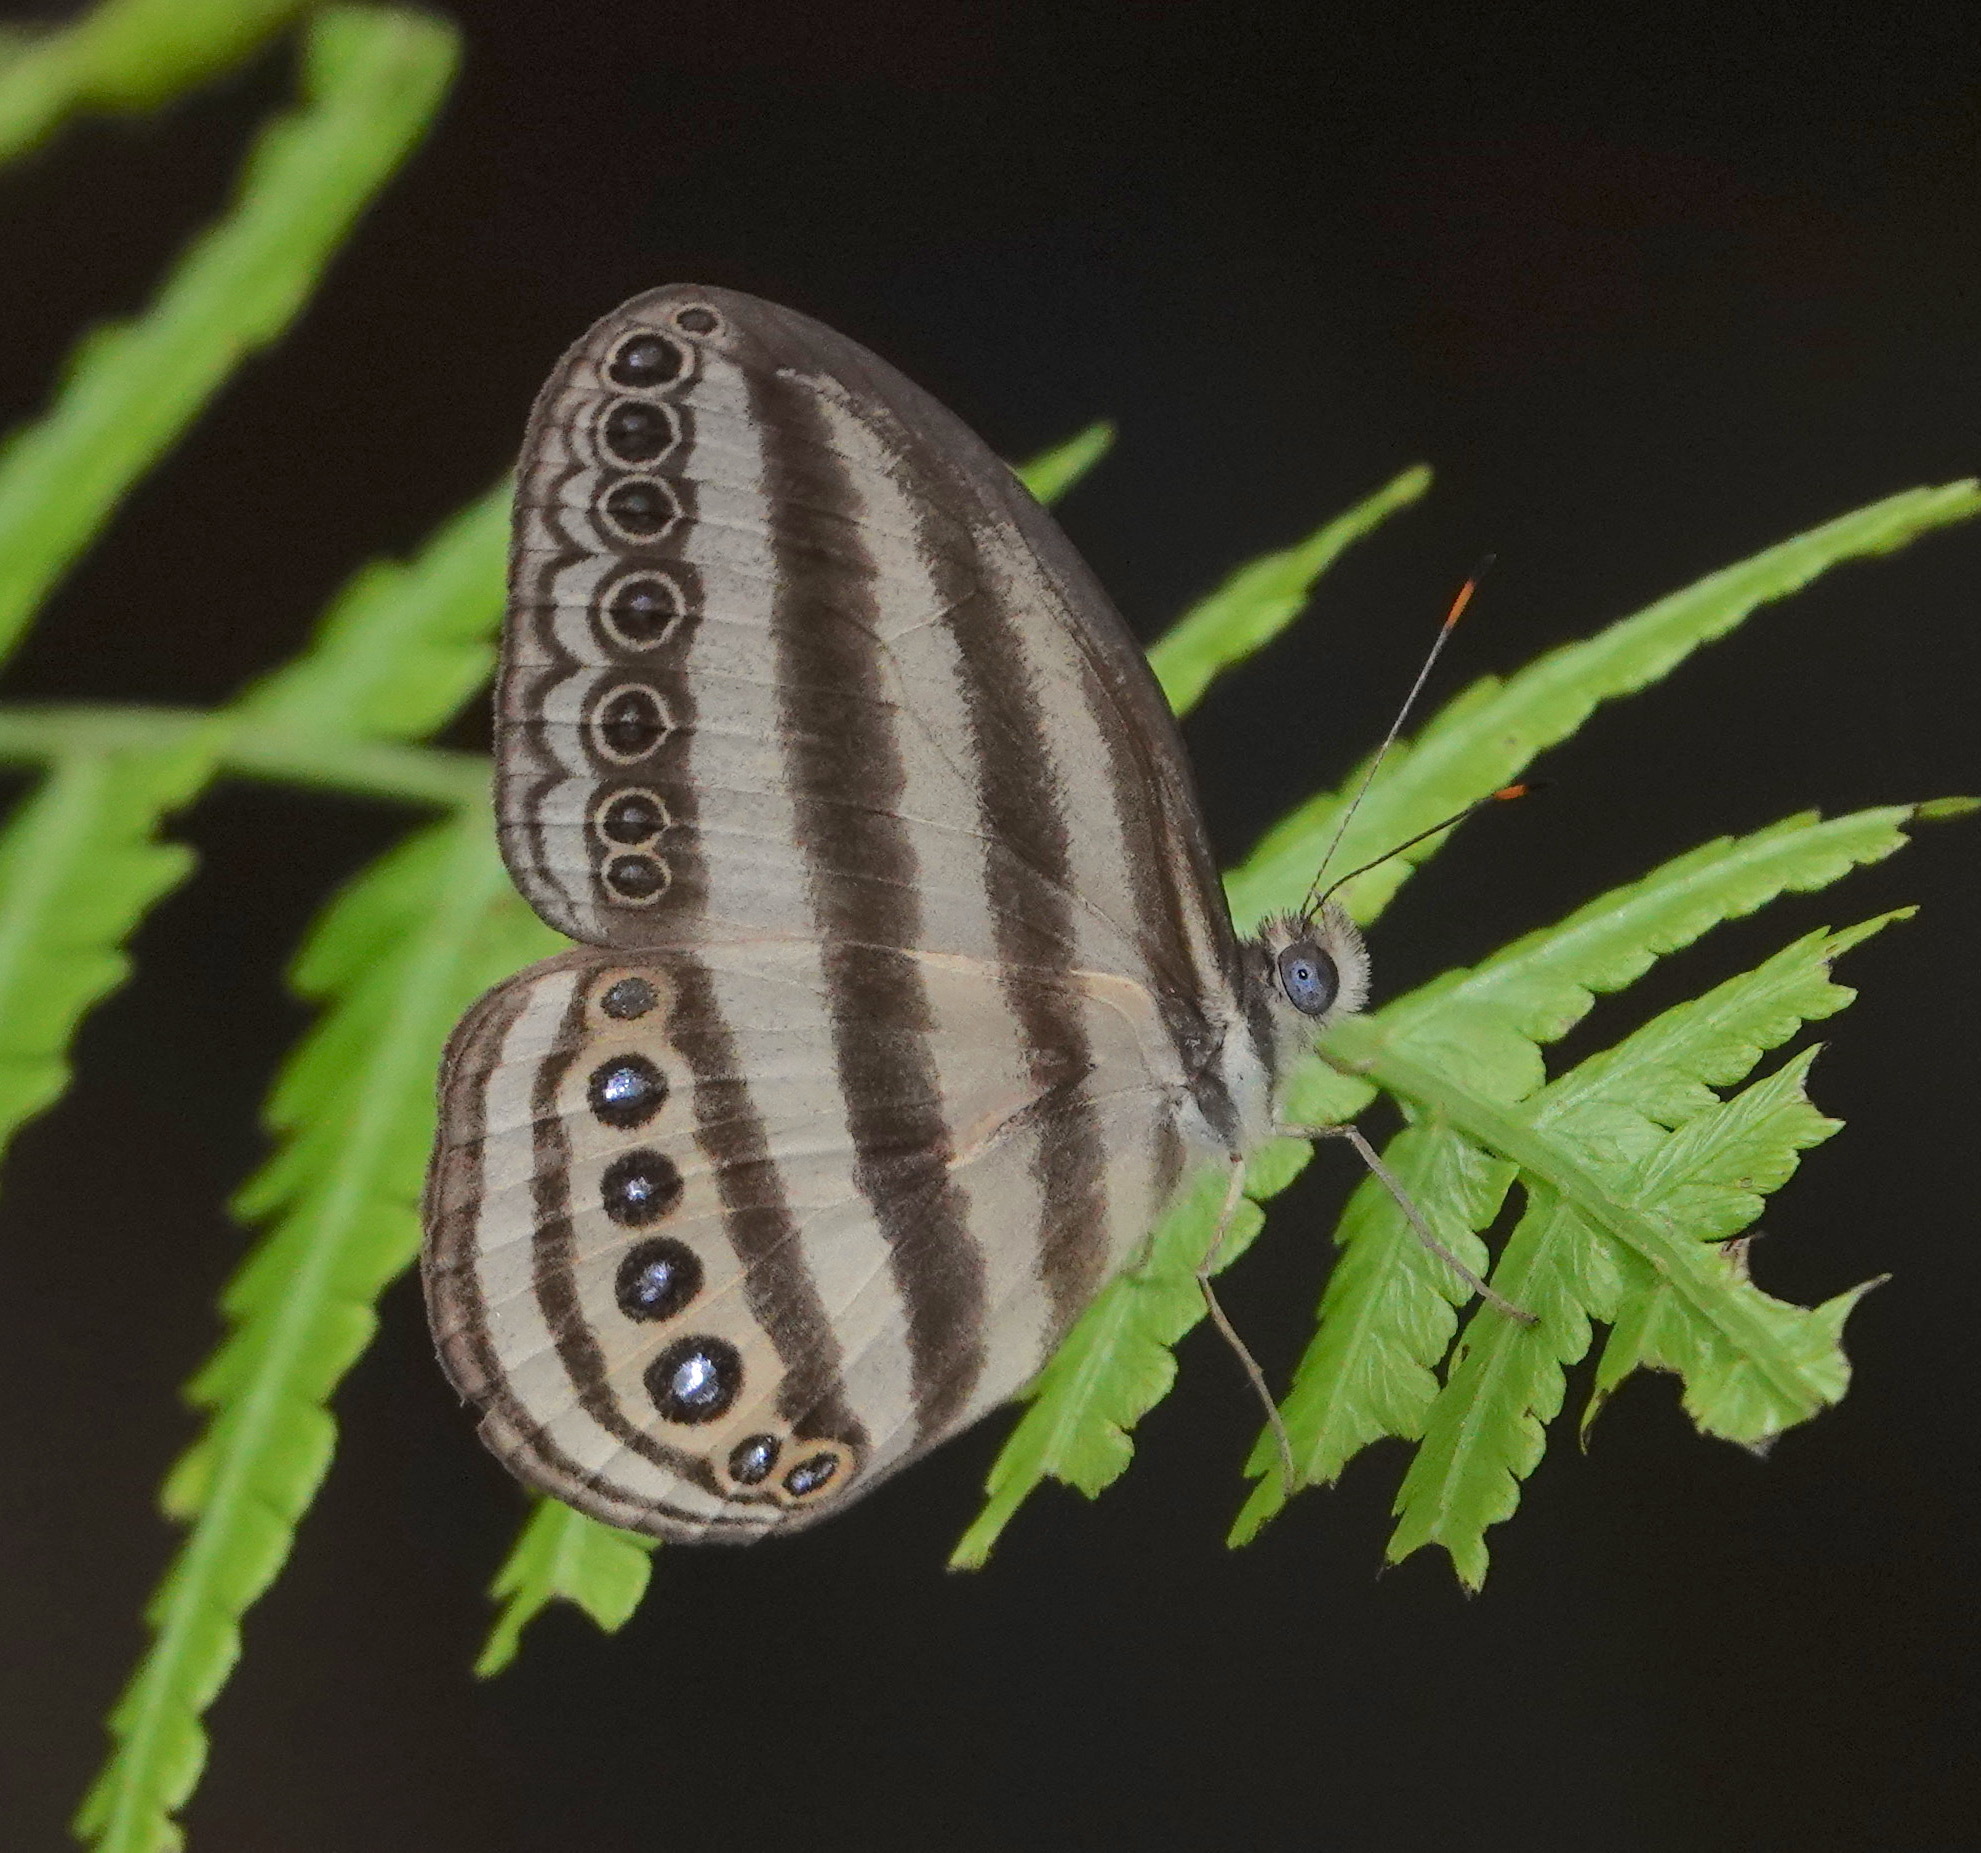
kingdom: Animalia
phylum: Arthropoda
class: Insecta
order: Lepidoptera
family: Nymphalidae
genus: Ragadia
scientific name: Ragadia makuta
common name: Striped ringlet
